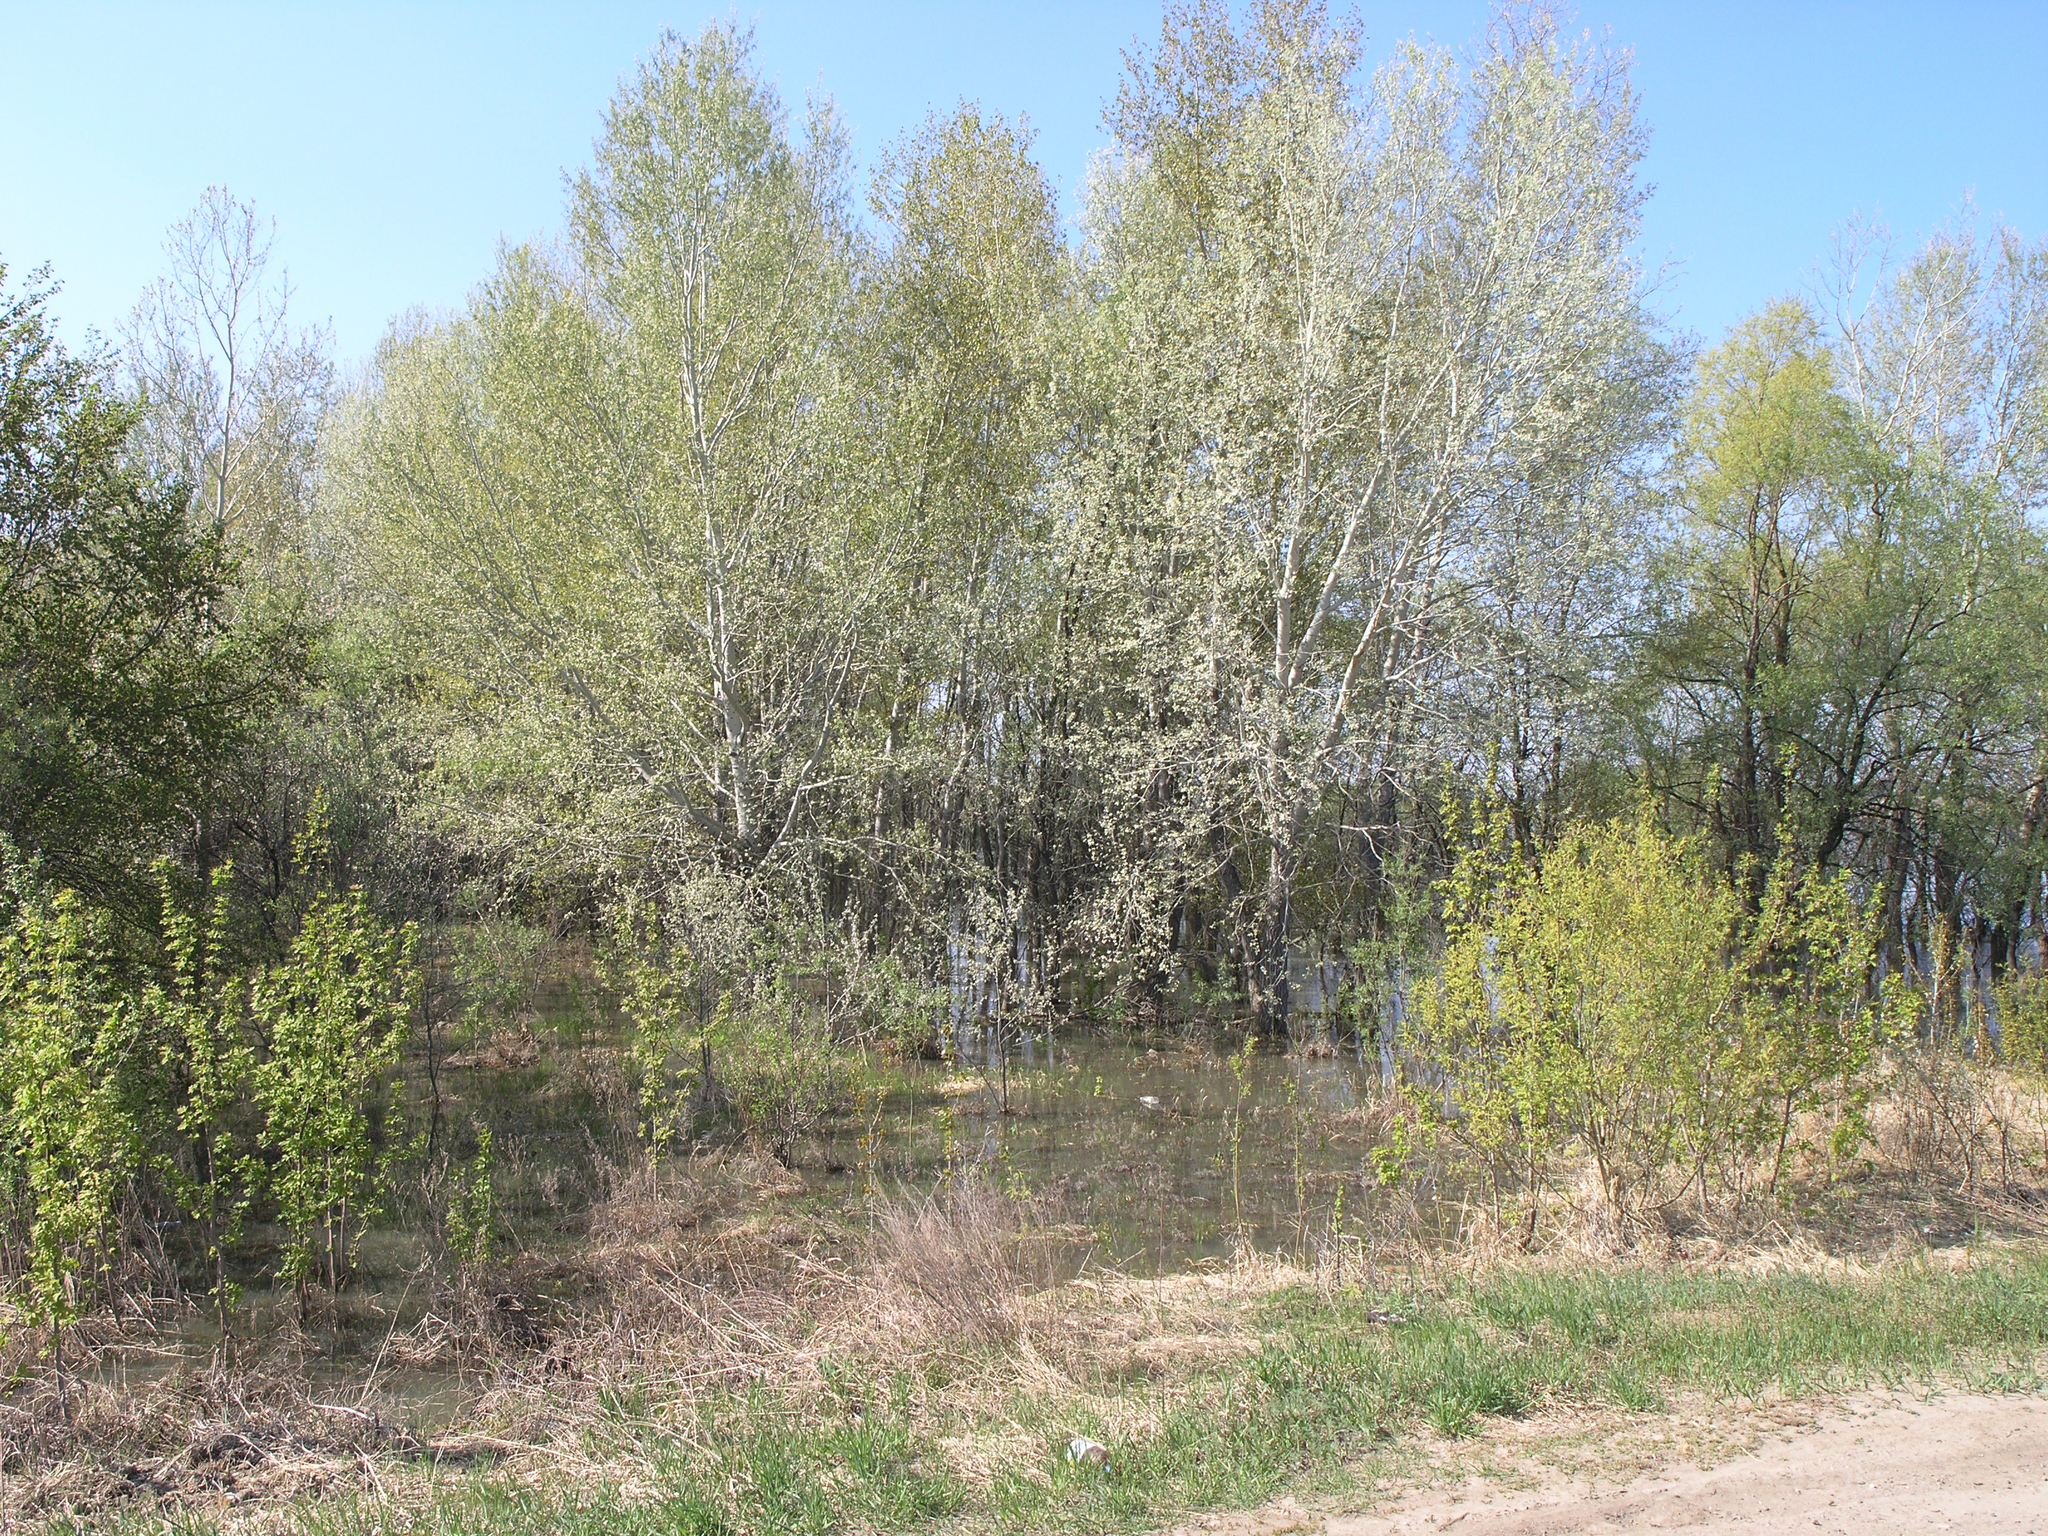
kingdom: Plantae
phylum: Tracheophyta
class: Magnoliopsida
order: Malpighiales
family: Salicaceae
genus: Populus
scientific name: Populus alba
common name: White poplar
